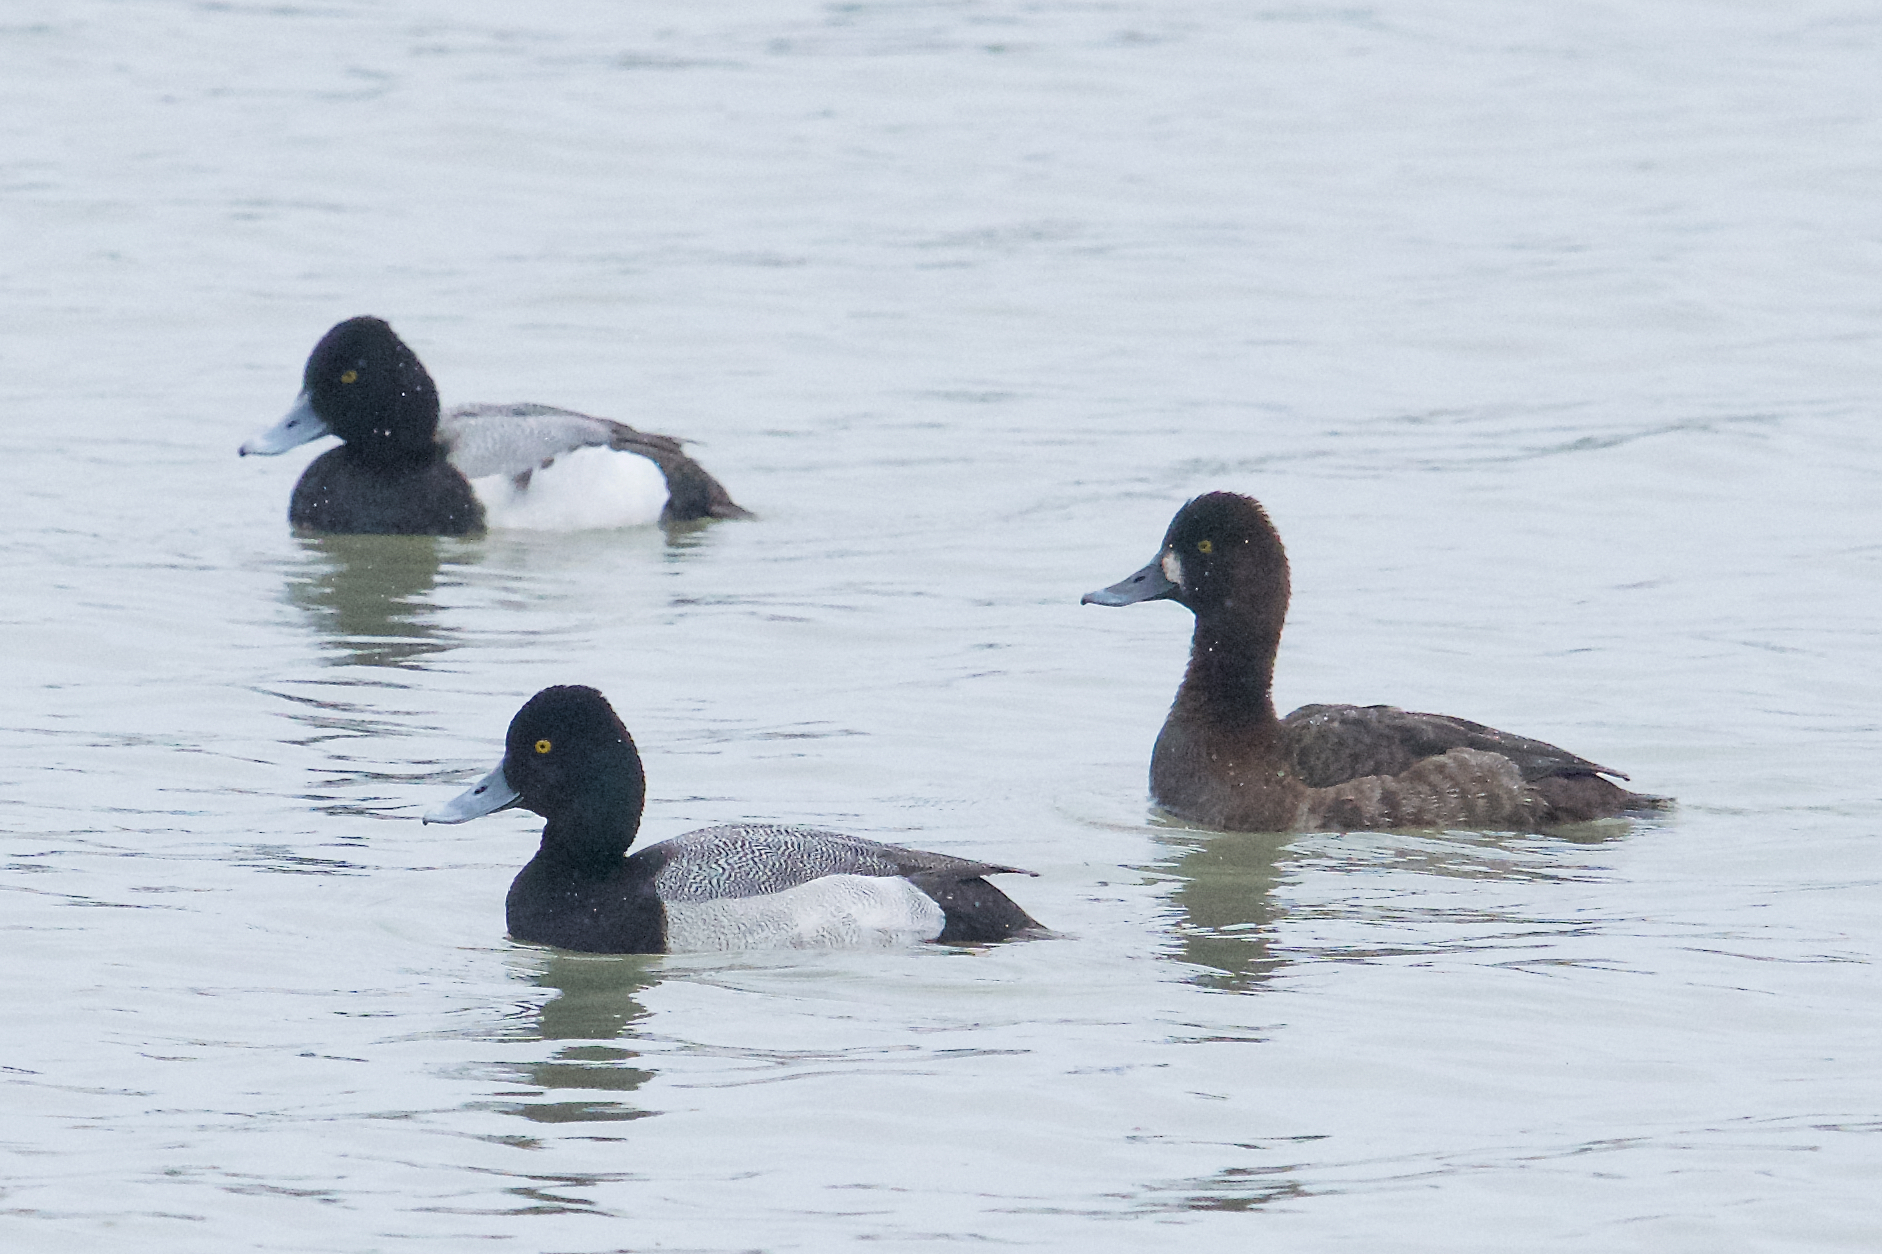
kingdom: Animalia
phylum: Chordata
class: Aves
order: Anseriformes
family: Anatidae
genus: Aythya
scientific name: Aythya affinis
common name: Lesser scaup
